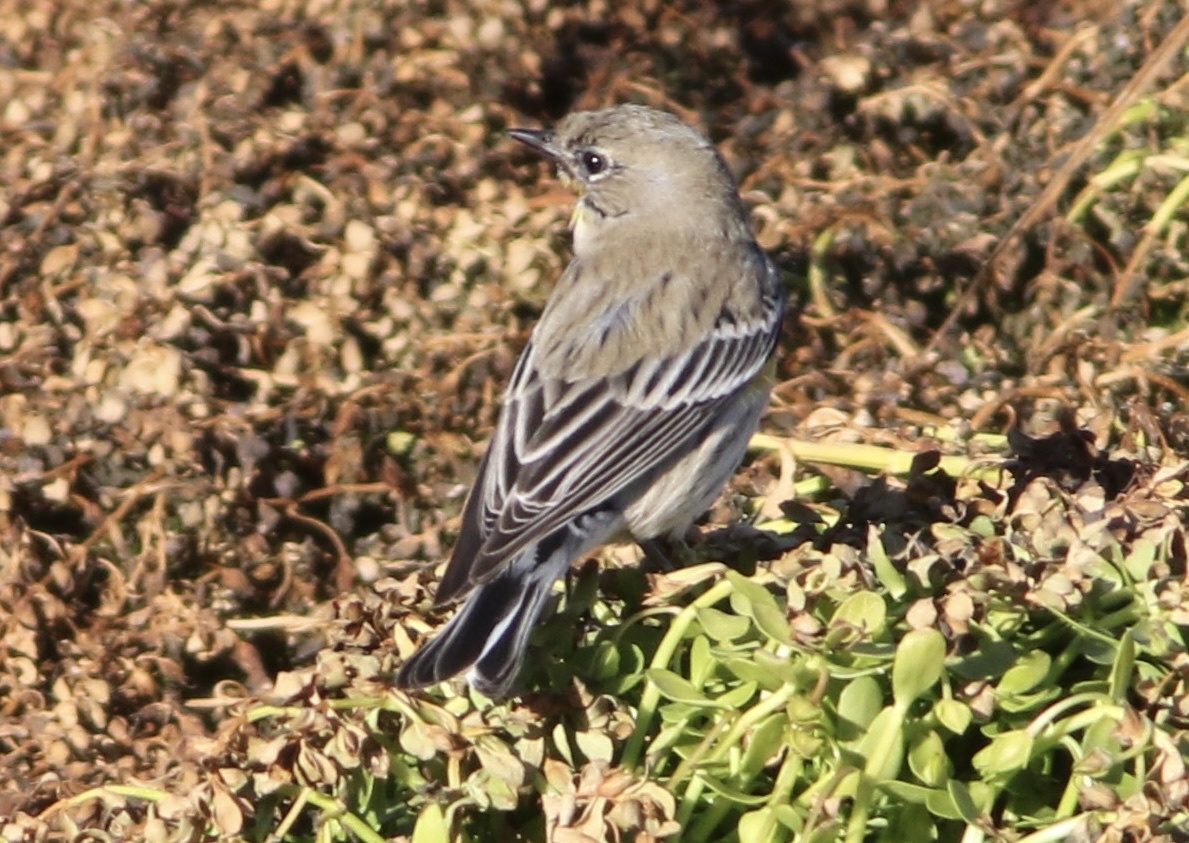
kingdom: Animalia
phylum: Chordata
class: Aves
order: Passeriformes
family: Parulidae
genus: Setophaga
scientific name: Setophaga coronata
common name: Myrtle warbler
